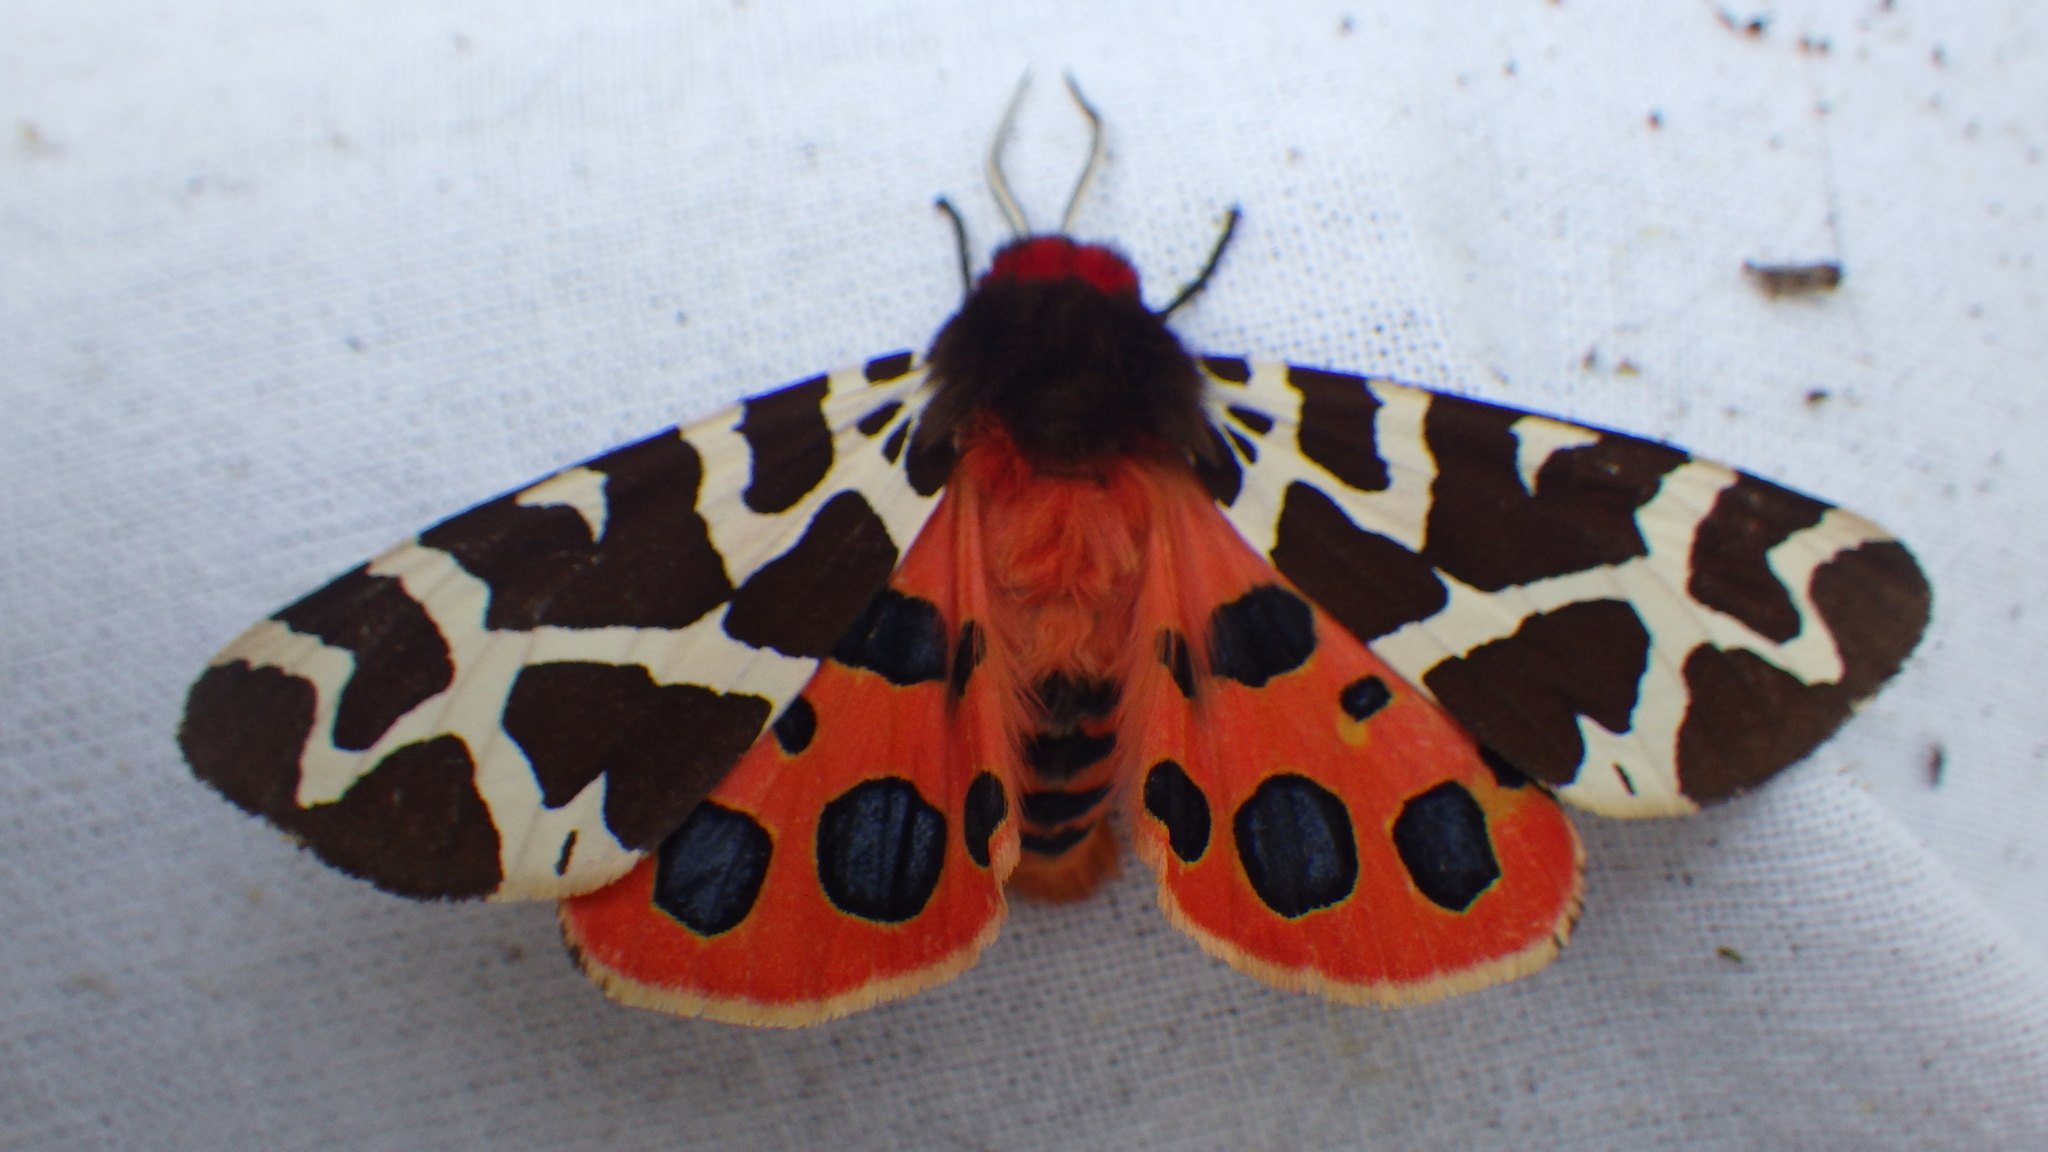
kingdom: Animalia
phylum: Arthropoda
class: Insecta
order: Lepidoptera
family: Erebidae
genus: Arctia
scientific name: Arctia caja
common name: Garden tiger
